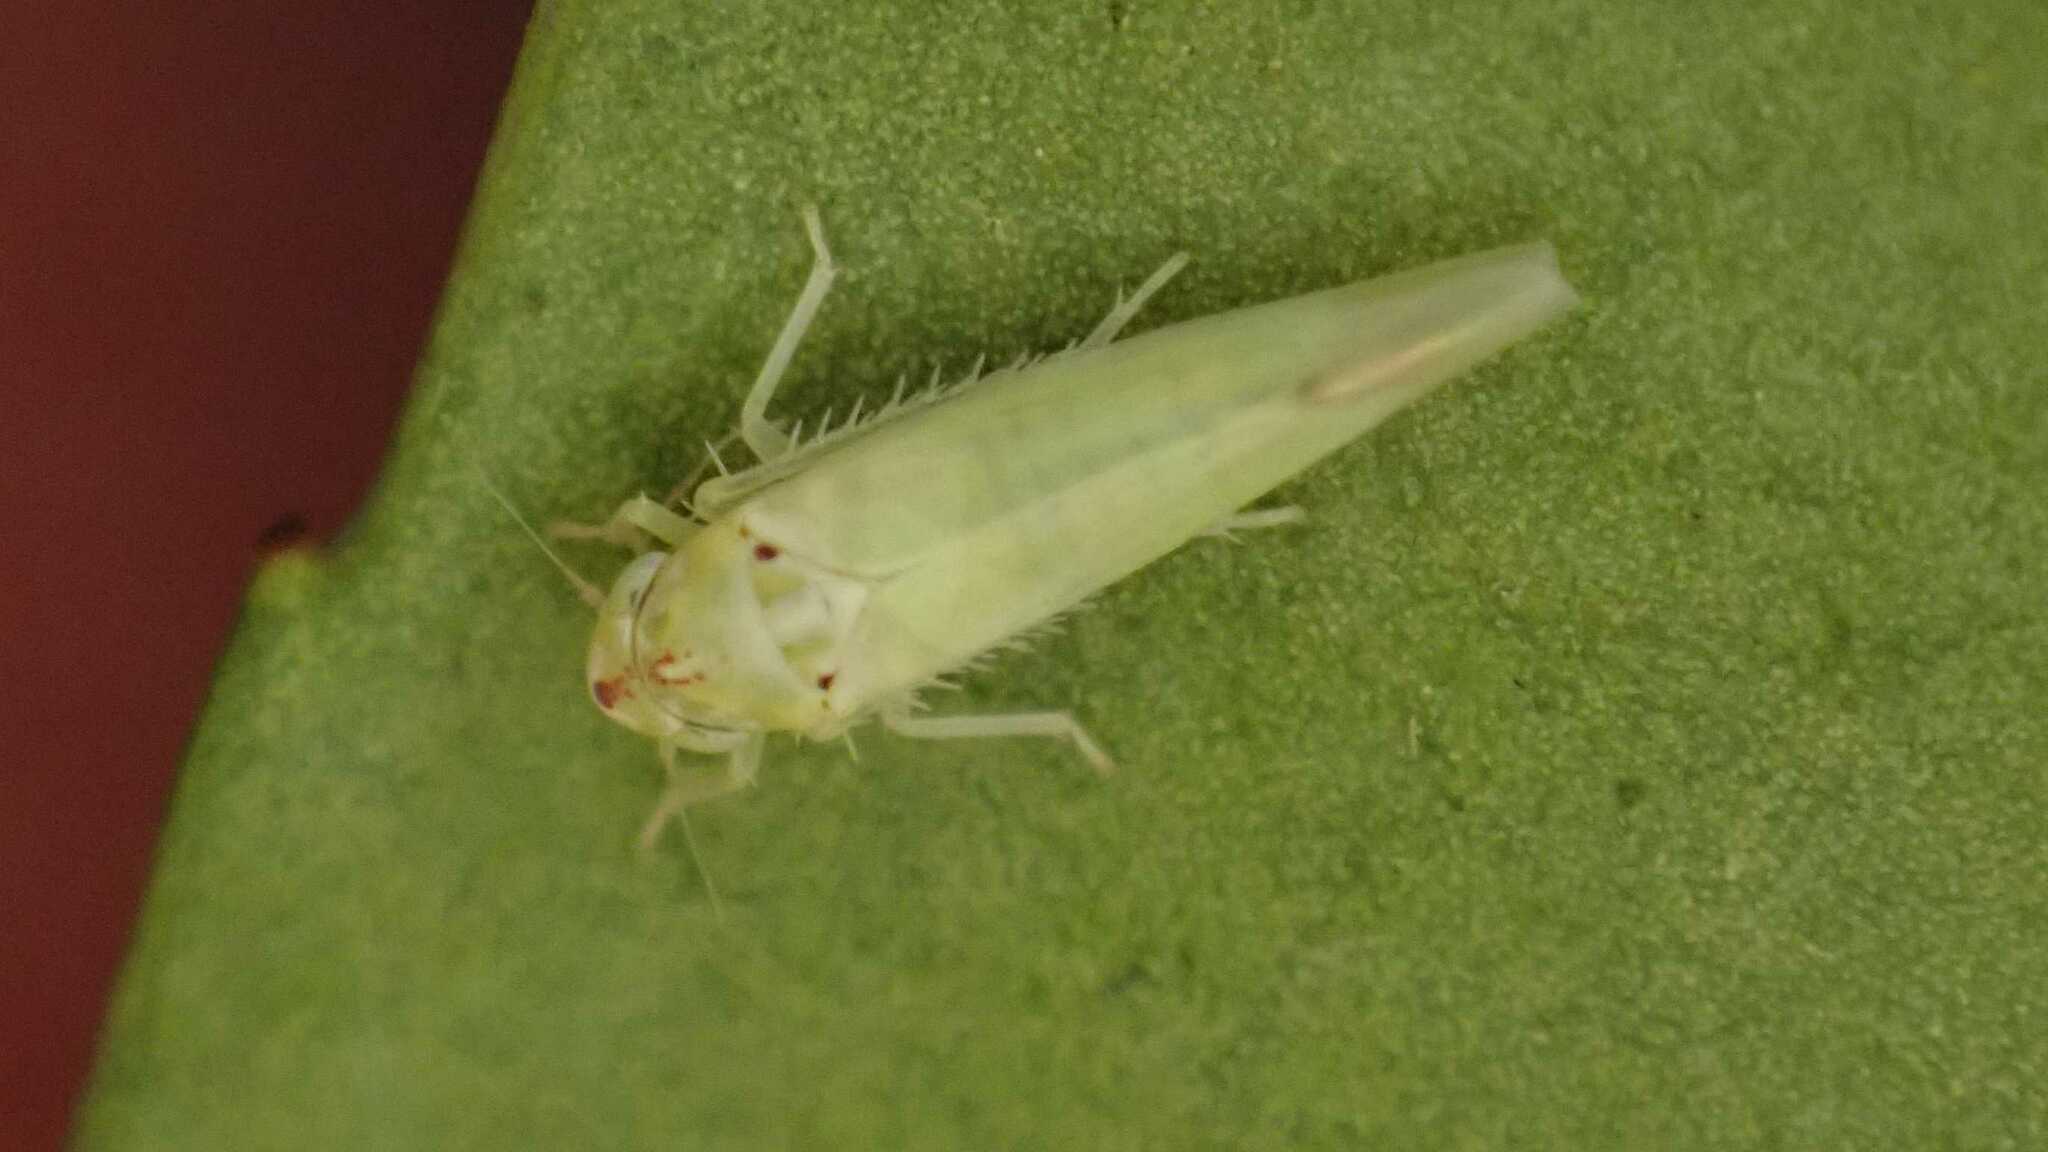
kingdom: Animalia
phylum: Arthropoda
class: Insecta
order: Hemiptera
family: Cicadellidae
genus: Zygina
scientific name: Zygina nivea
